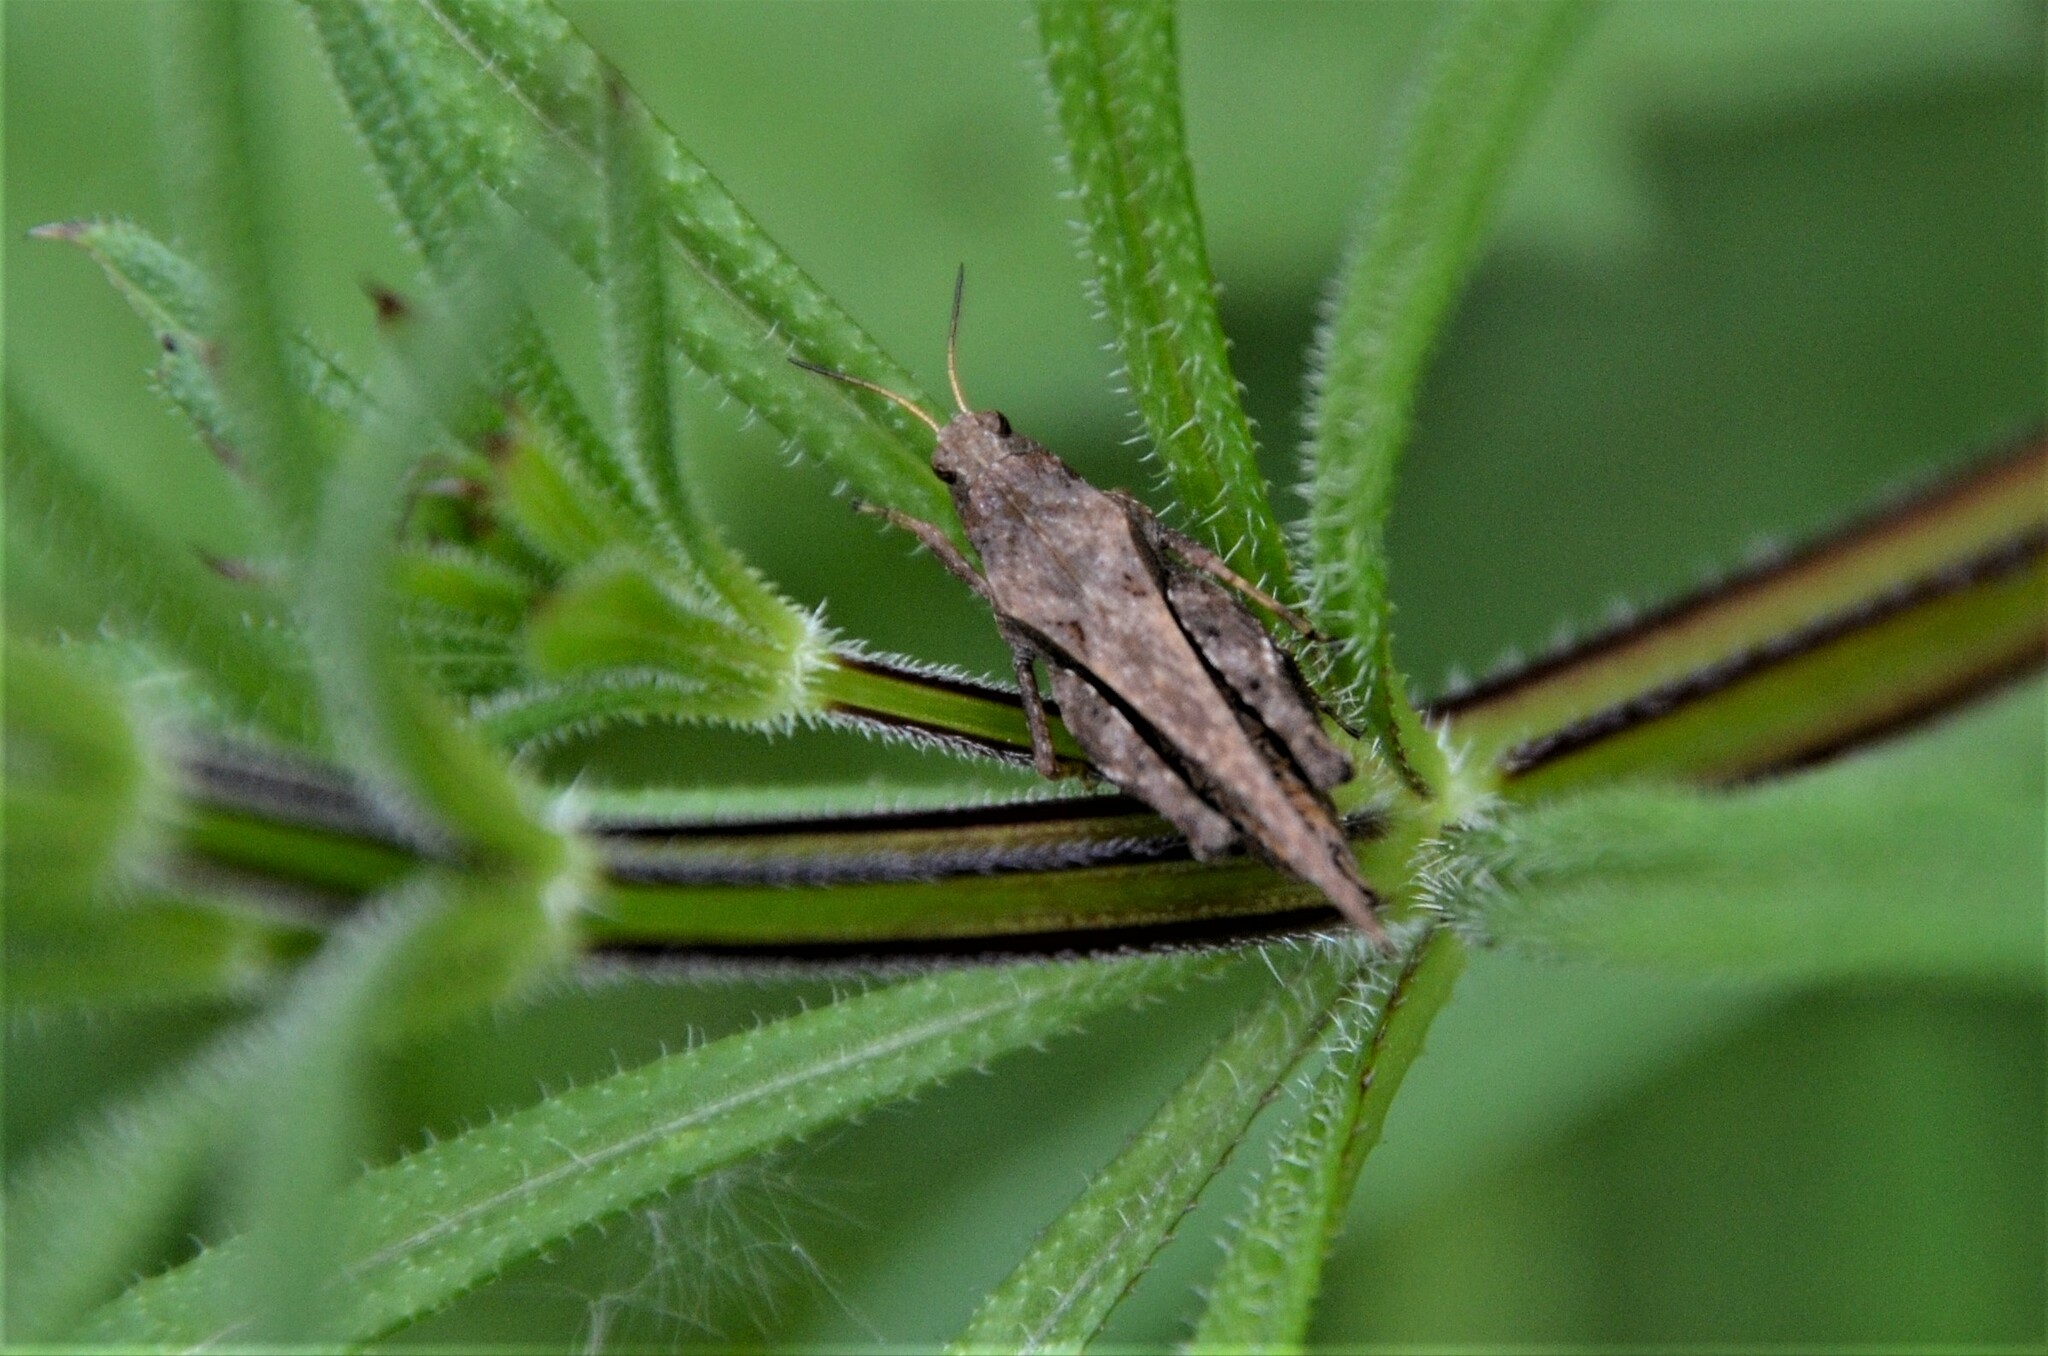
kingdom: Animalia
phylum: Arthropoda
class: Insecta
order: Orthoptera
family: Tetrigidae
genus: Tetrix
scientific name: Tetrix subulata
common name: Slender ground-hopper
